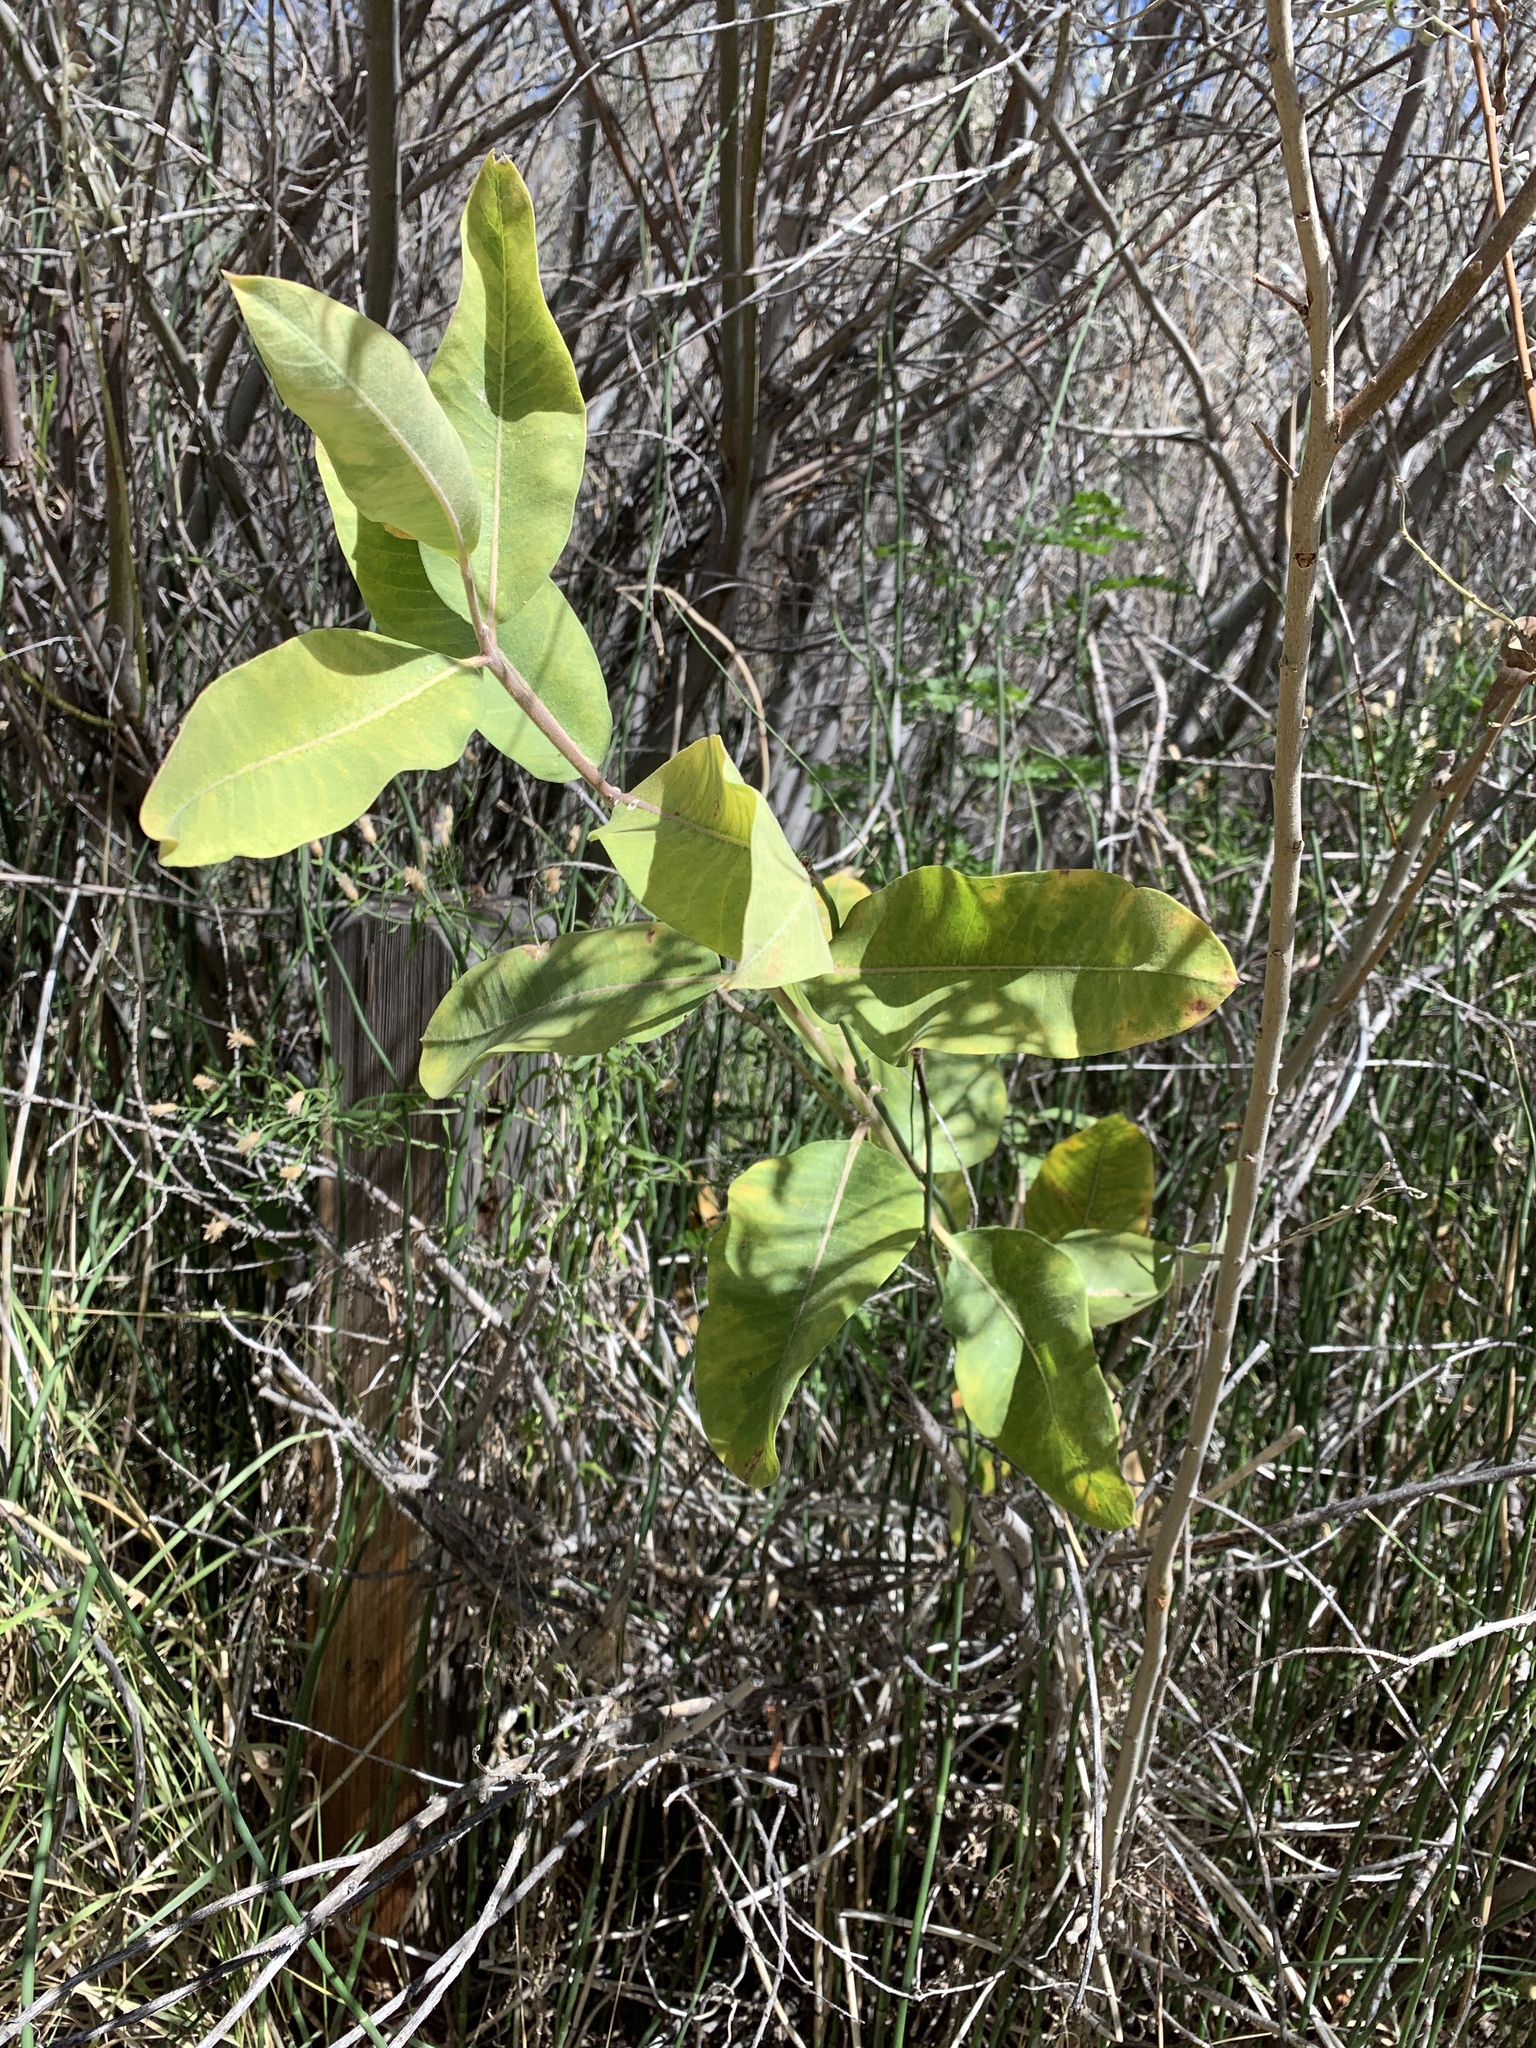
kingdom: Plantae
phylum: Tracheophyta
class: Magnoliopsida
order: Gentianales
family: Apocynaceae
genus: Asclepias
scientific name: Asclepias speciosa
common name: Showy milkweed
